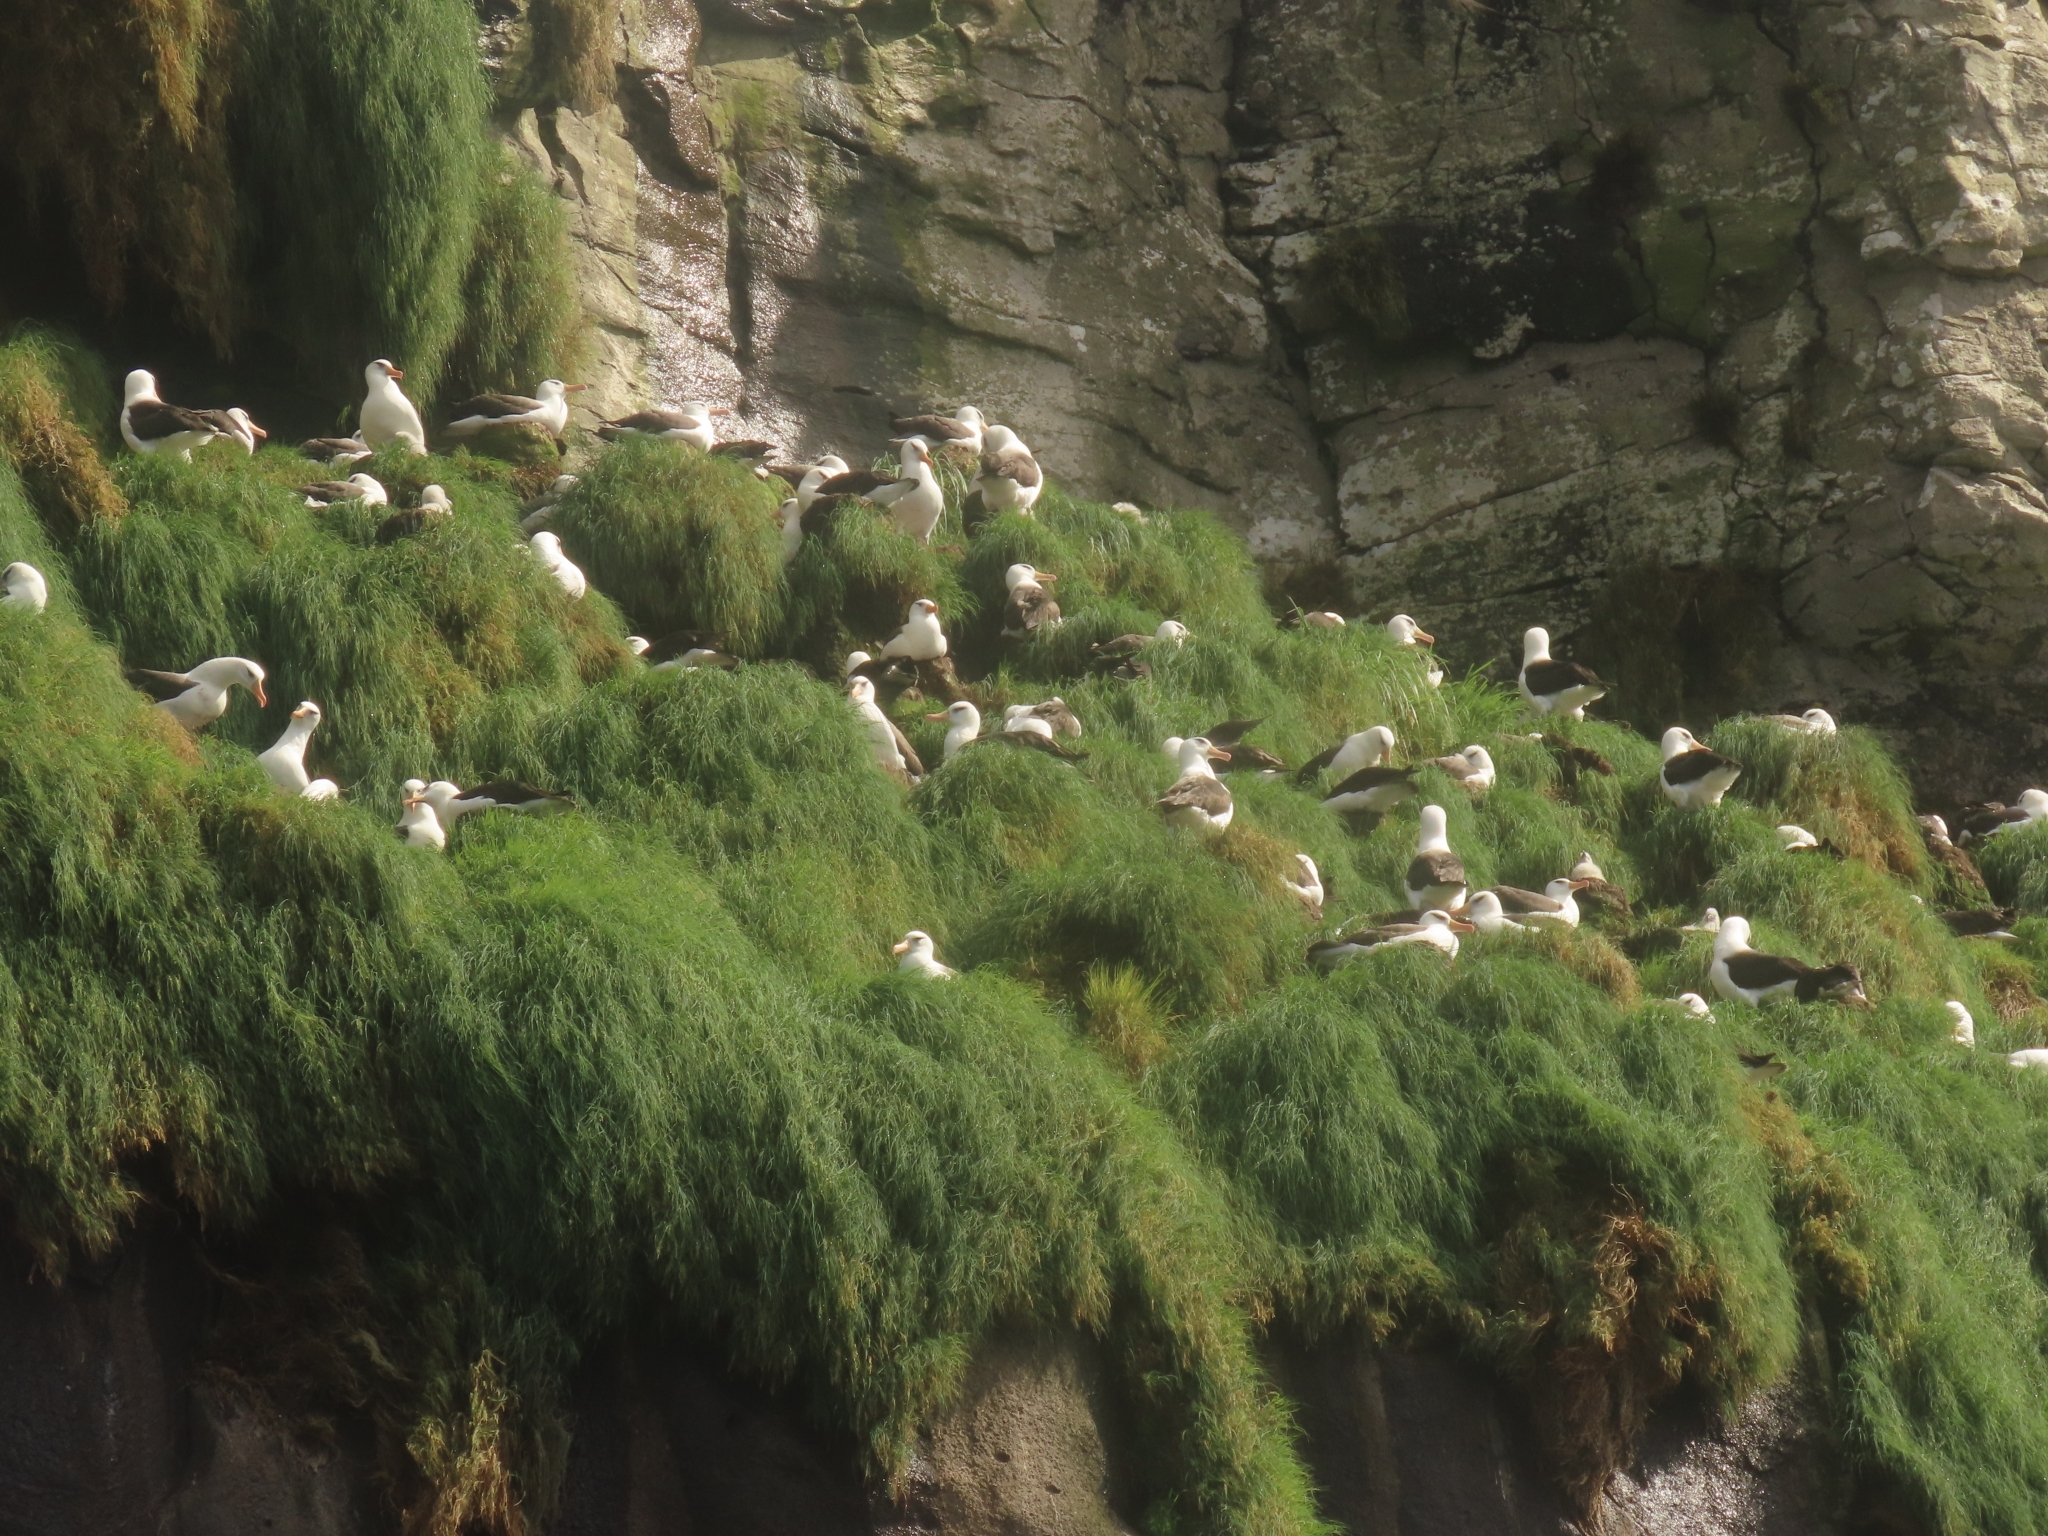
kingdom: Animalia
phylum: Chordata
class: Aves
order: Procellariiformes
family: Diomedeidae
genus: Thalassarche
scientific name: Thalassarche impavida
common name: Campbell albatross
